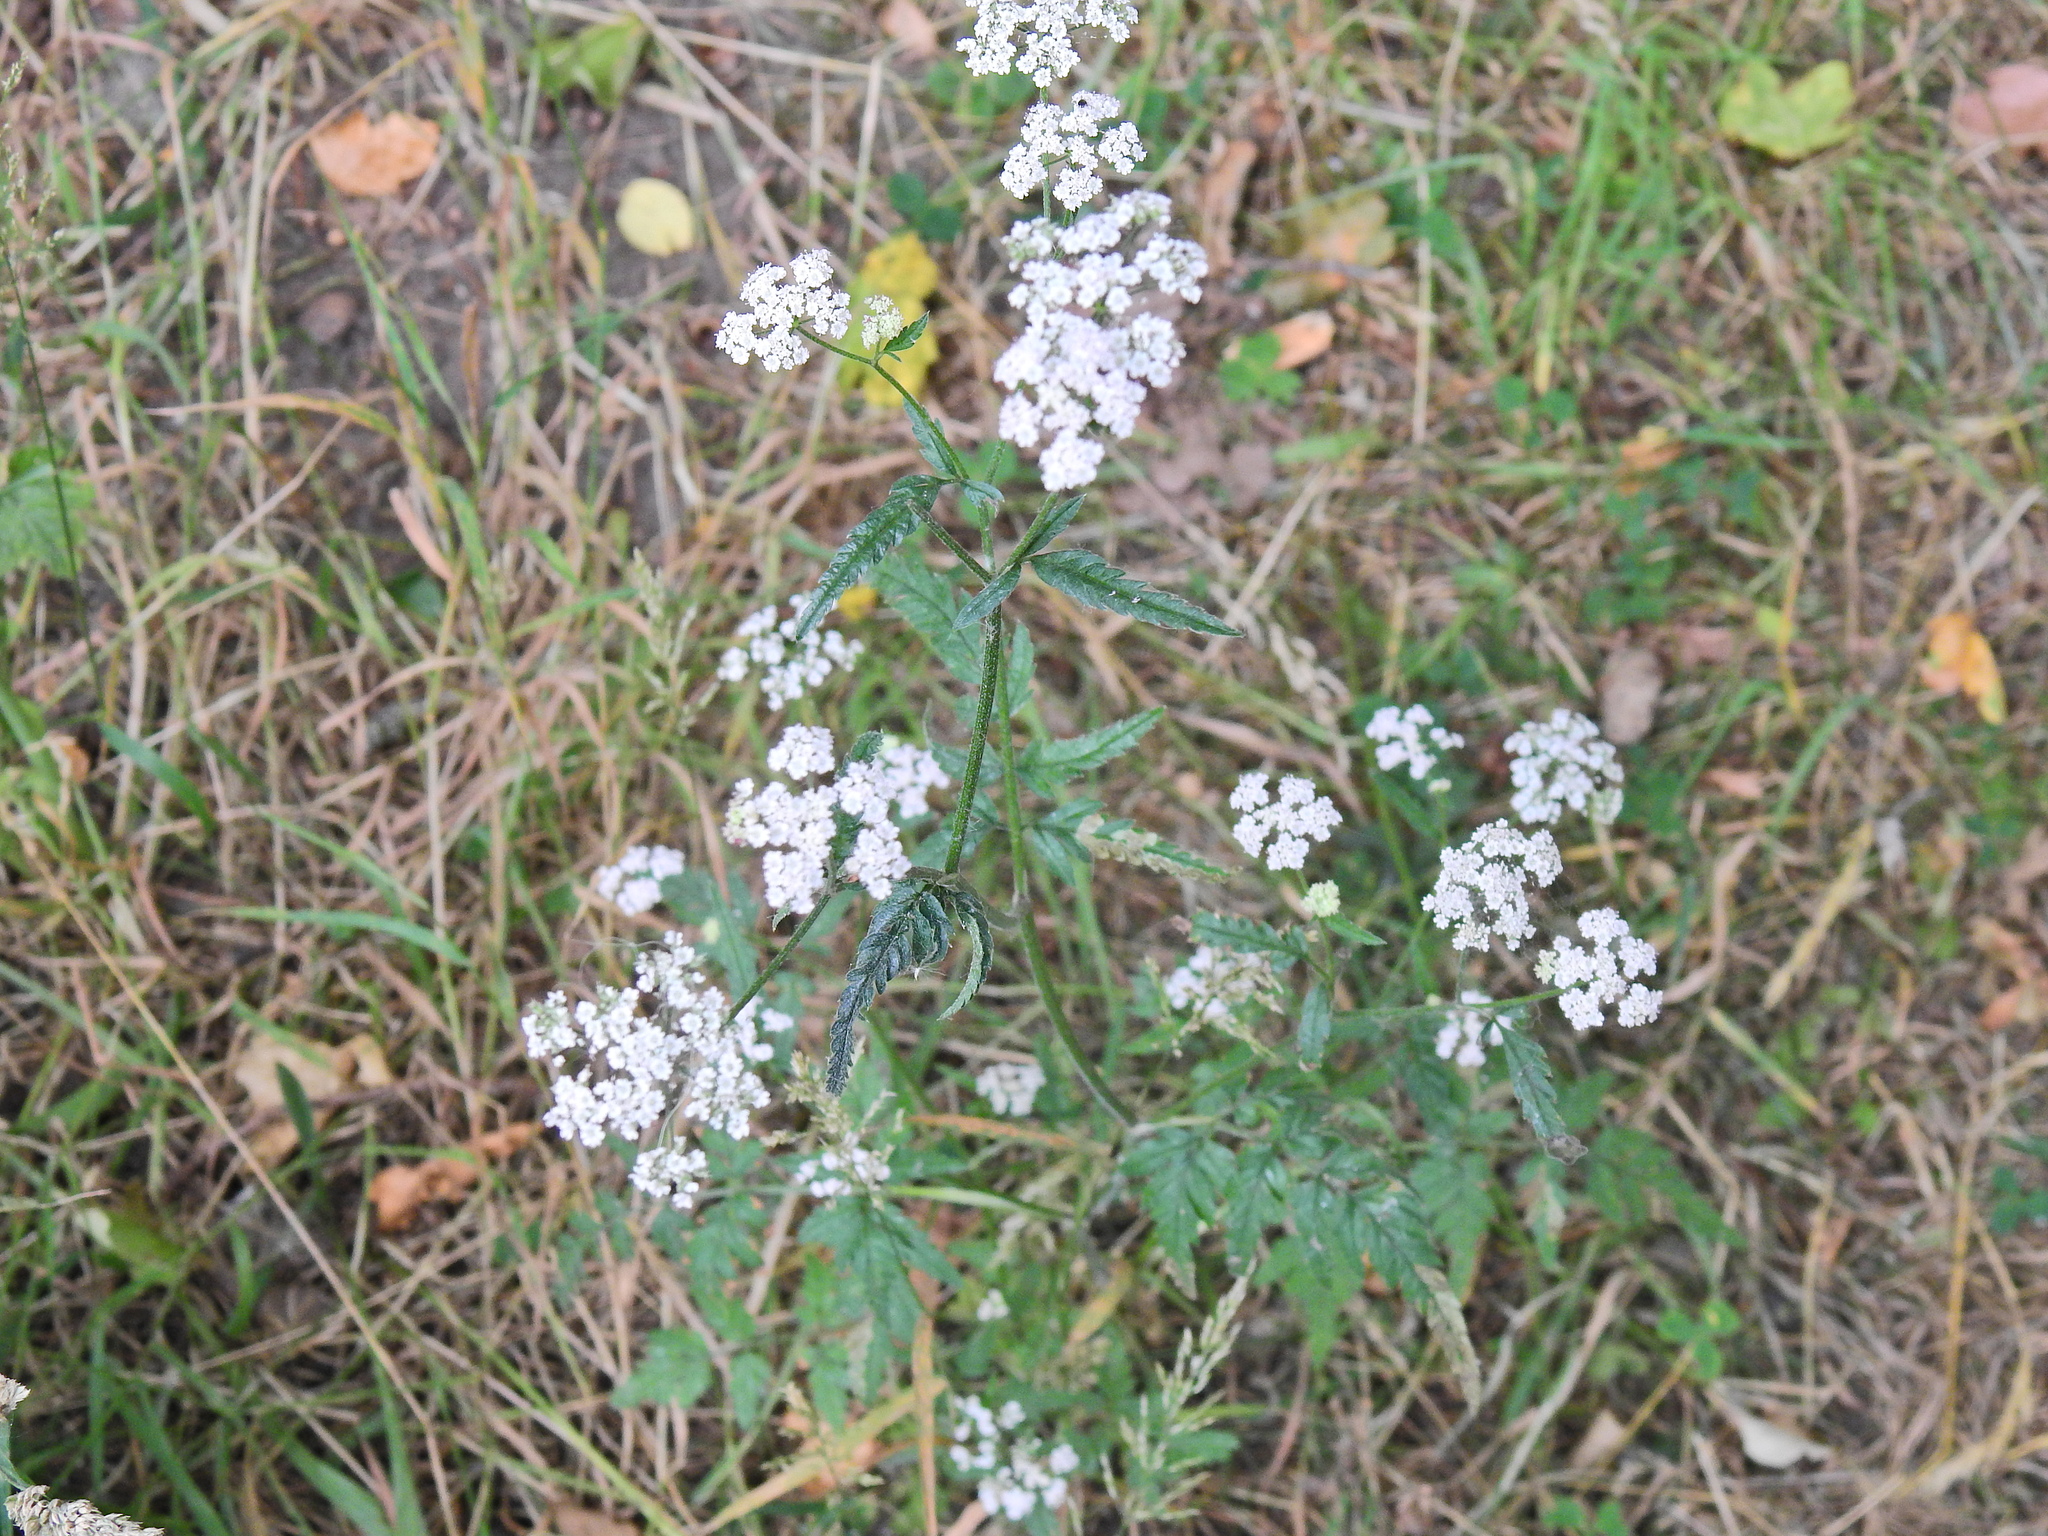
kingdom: Plantae
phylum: Tracheophyta
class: Magnoliopsida
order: Apiales
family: Apiaceae
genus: Torilis
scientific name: Torilis japonica
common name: Upright hedge-parsley
